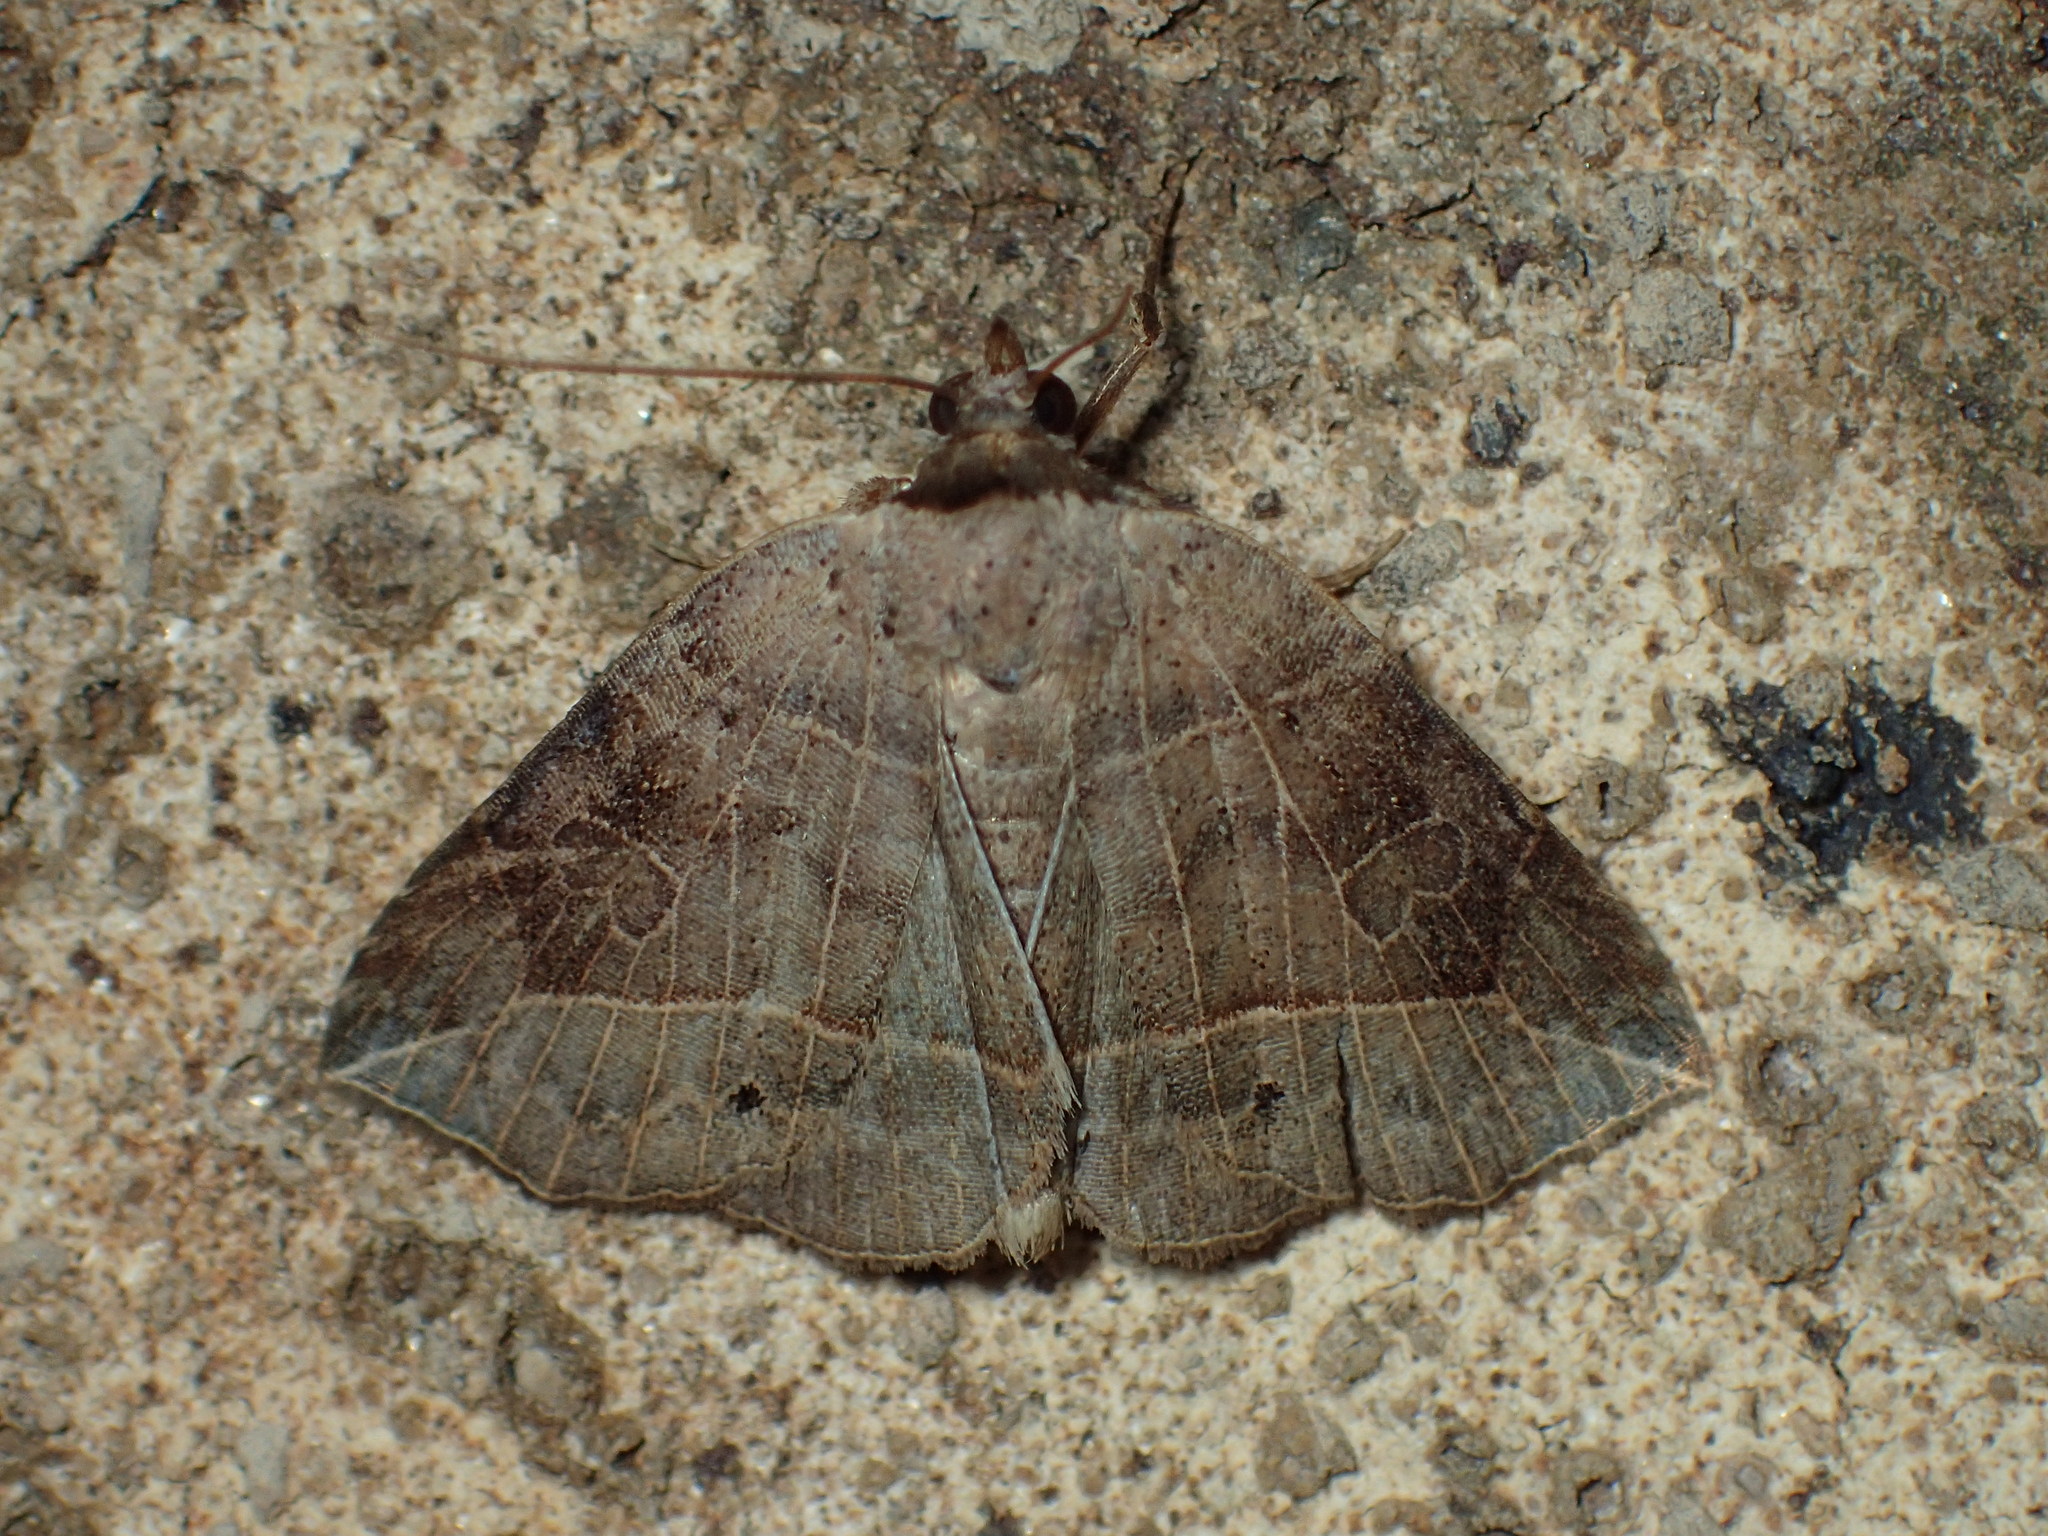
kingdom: Animalia
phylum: Arthropoda
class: Insecta
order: Lepidoptera
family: Erebidae
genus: Isogona
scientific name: Isogona tenuis
